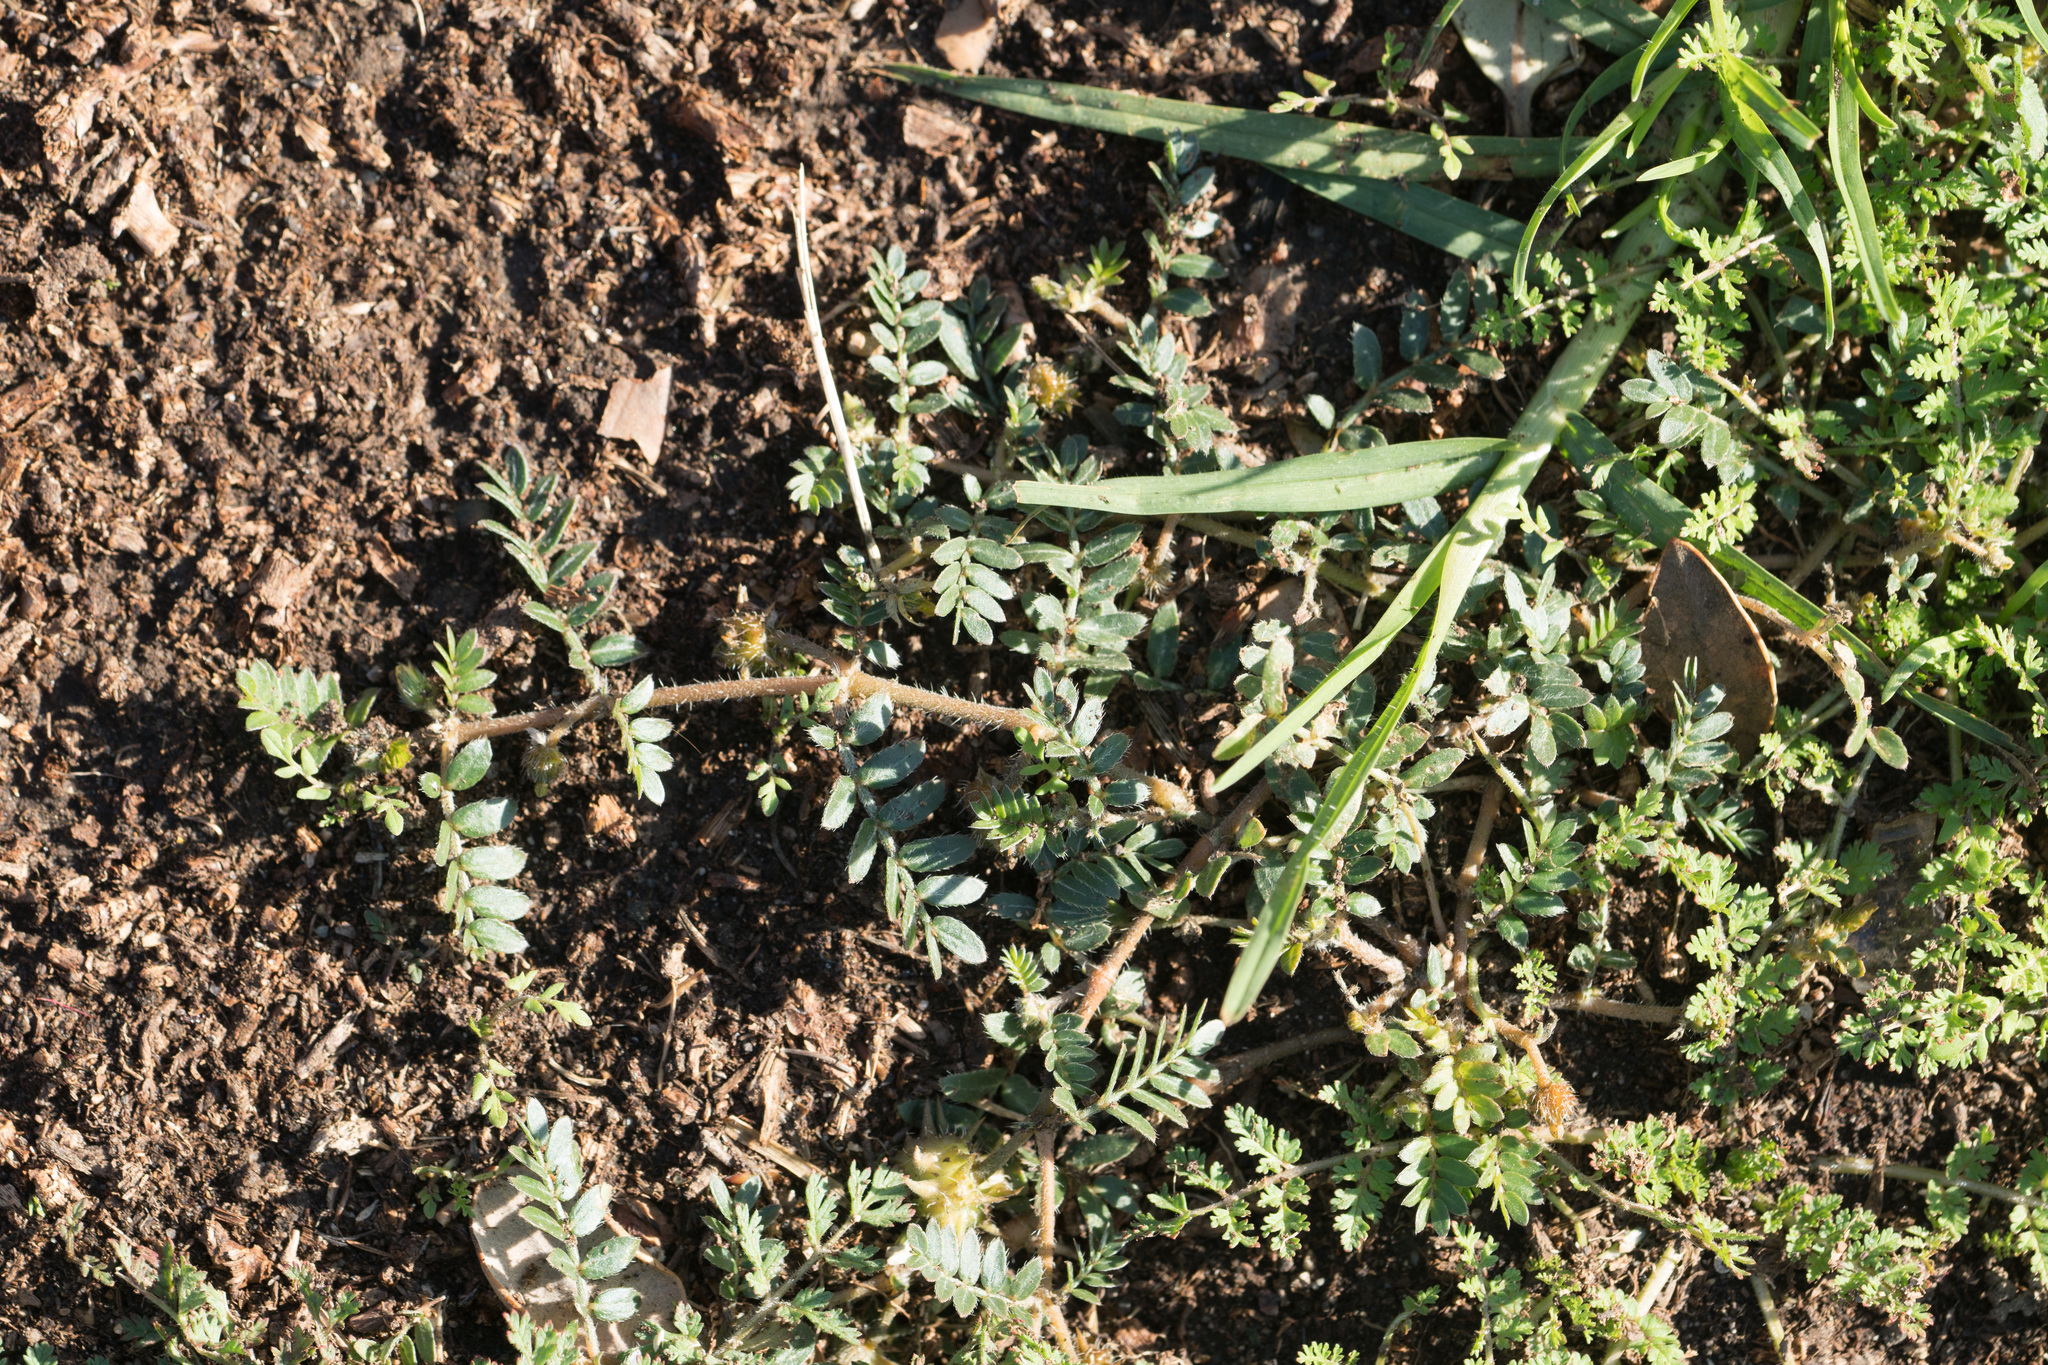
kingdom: Plantae
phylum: Tracheophyta
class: Magnoliopsida
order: Zygophyllales
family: Zygophyllaceae
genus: Tribulus
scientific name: Tribulus terrestris
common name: Puncturevine
